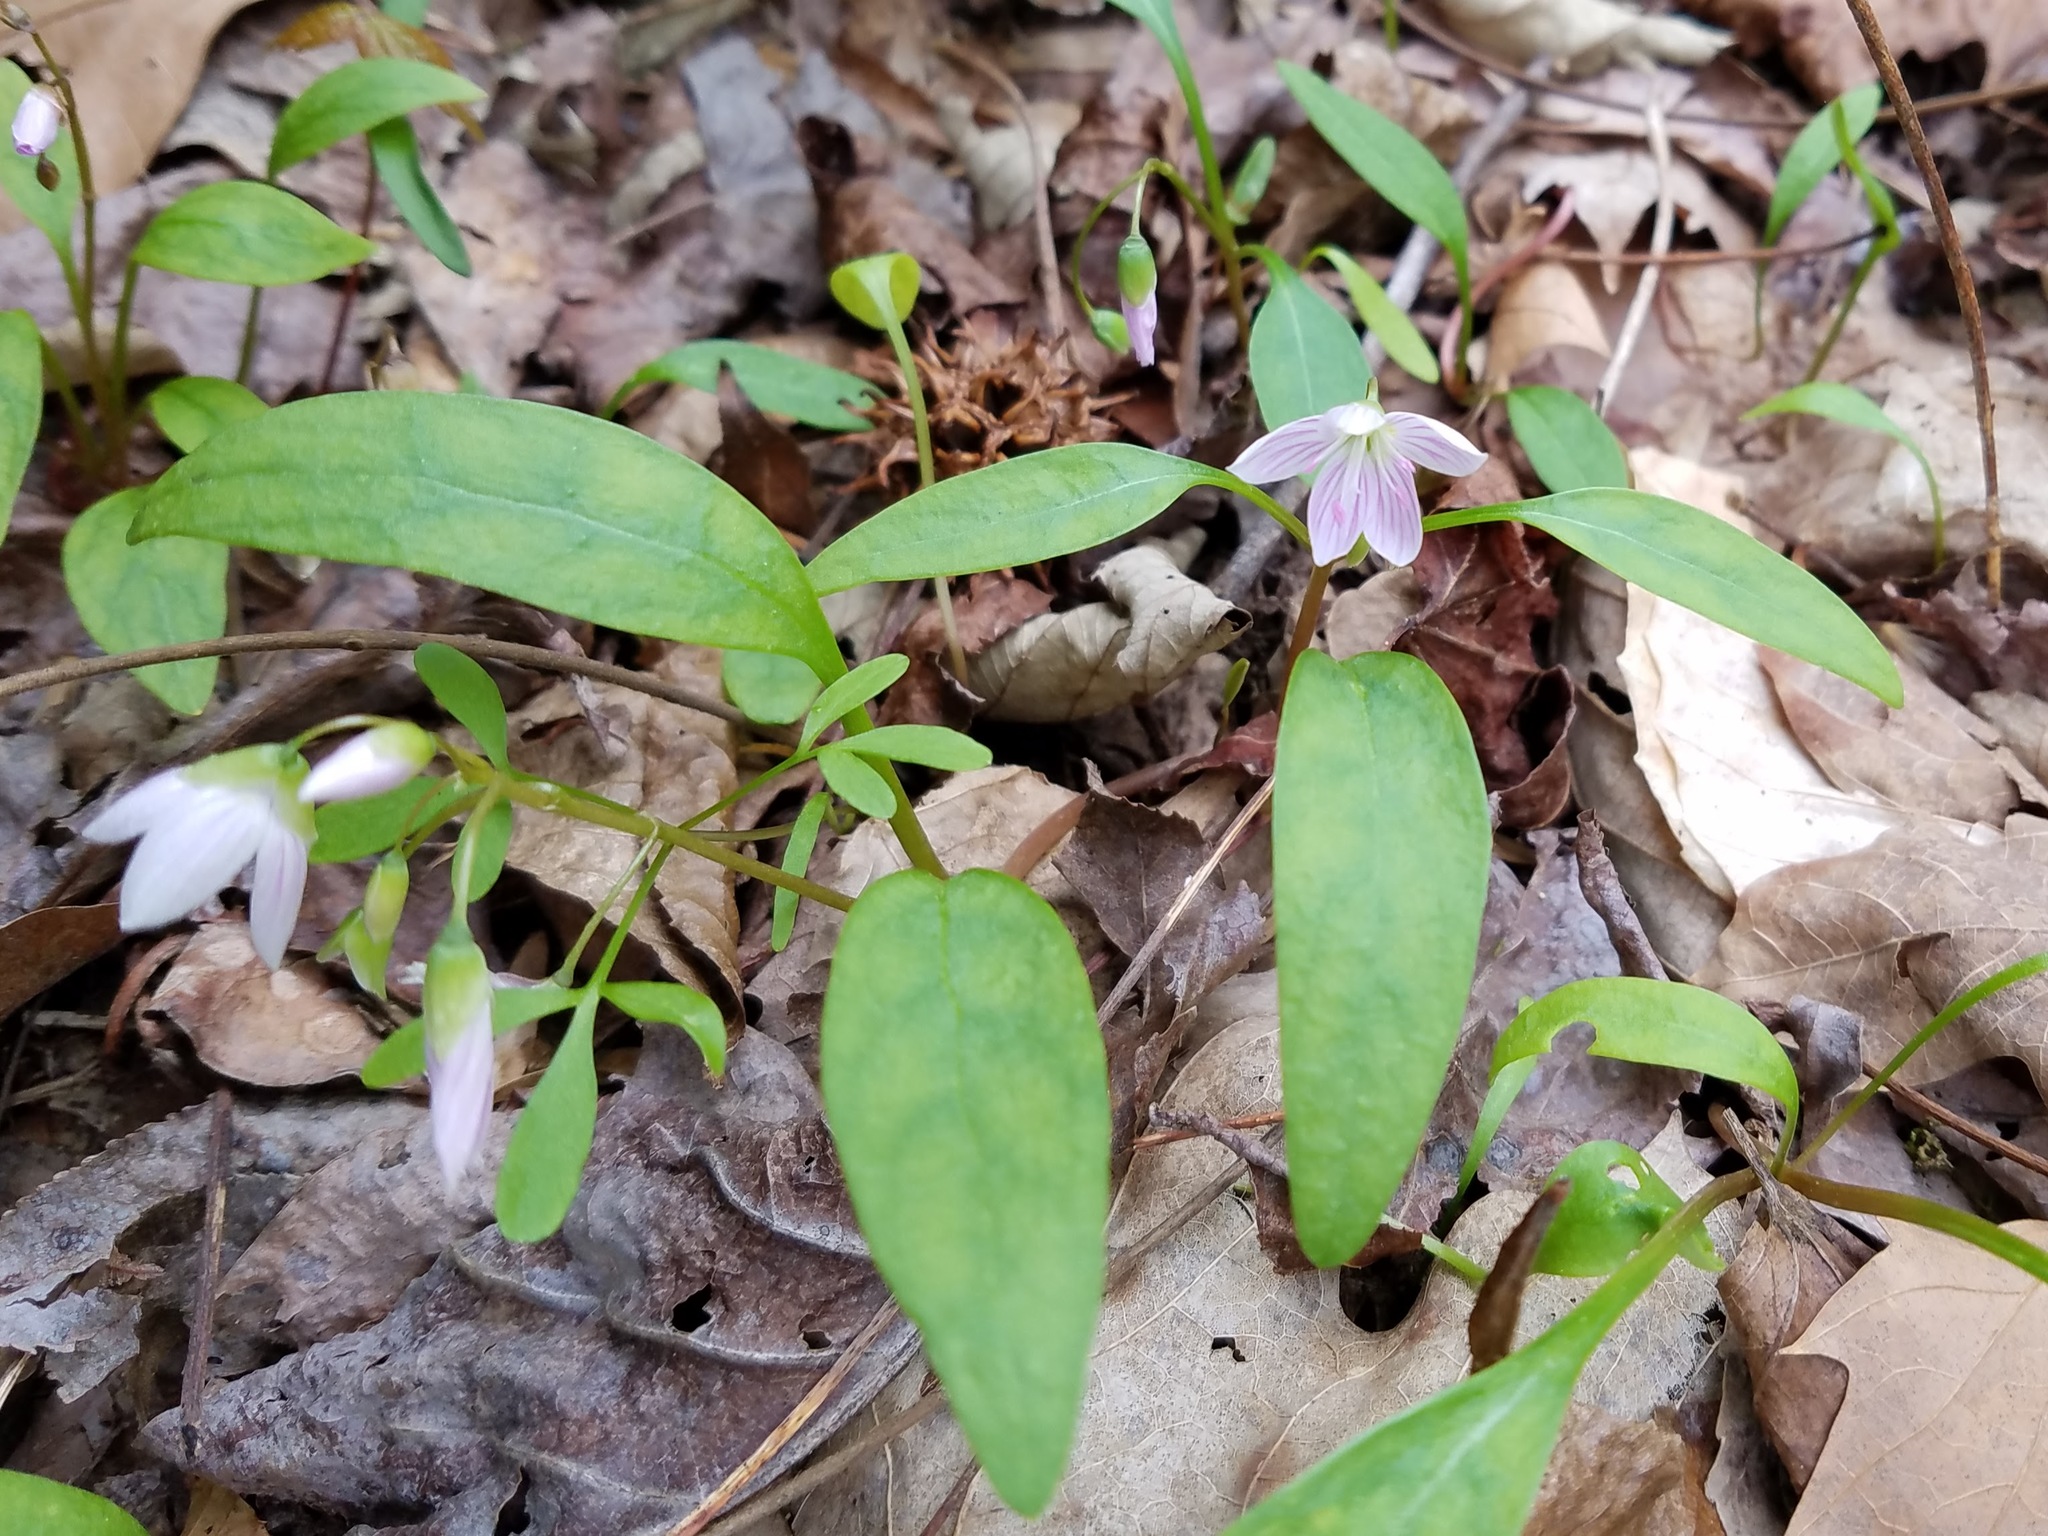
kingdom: Plantae
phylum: Tracheophyta
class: Magnoliopsida
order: Caryophyllales
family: Montiaceae
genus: Claytonia
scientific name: Claytonia caroliniana
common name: Carolina spring beauty
